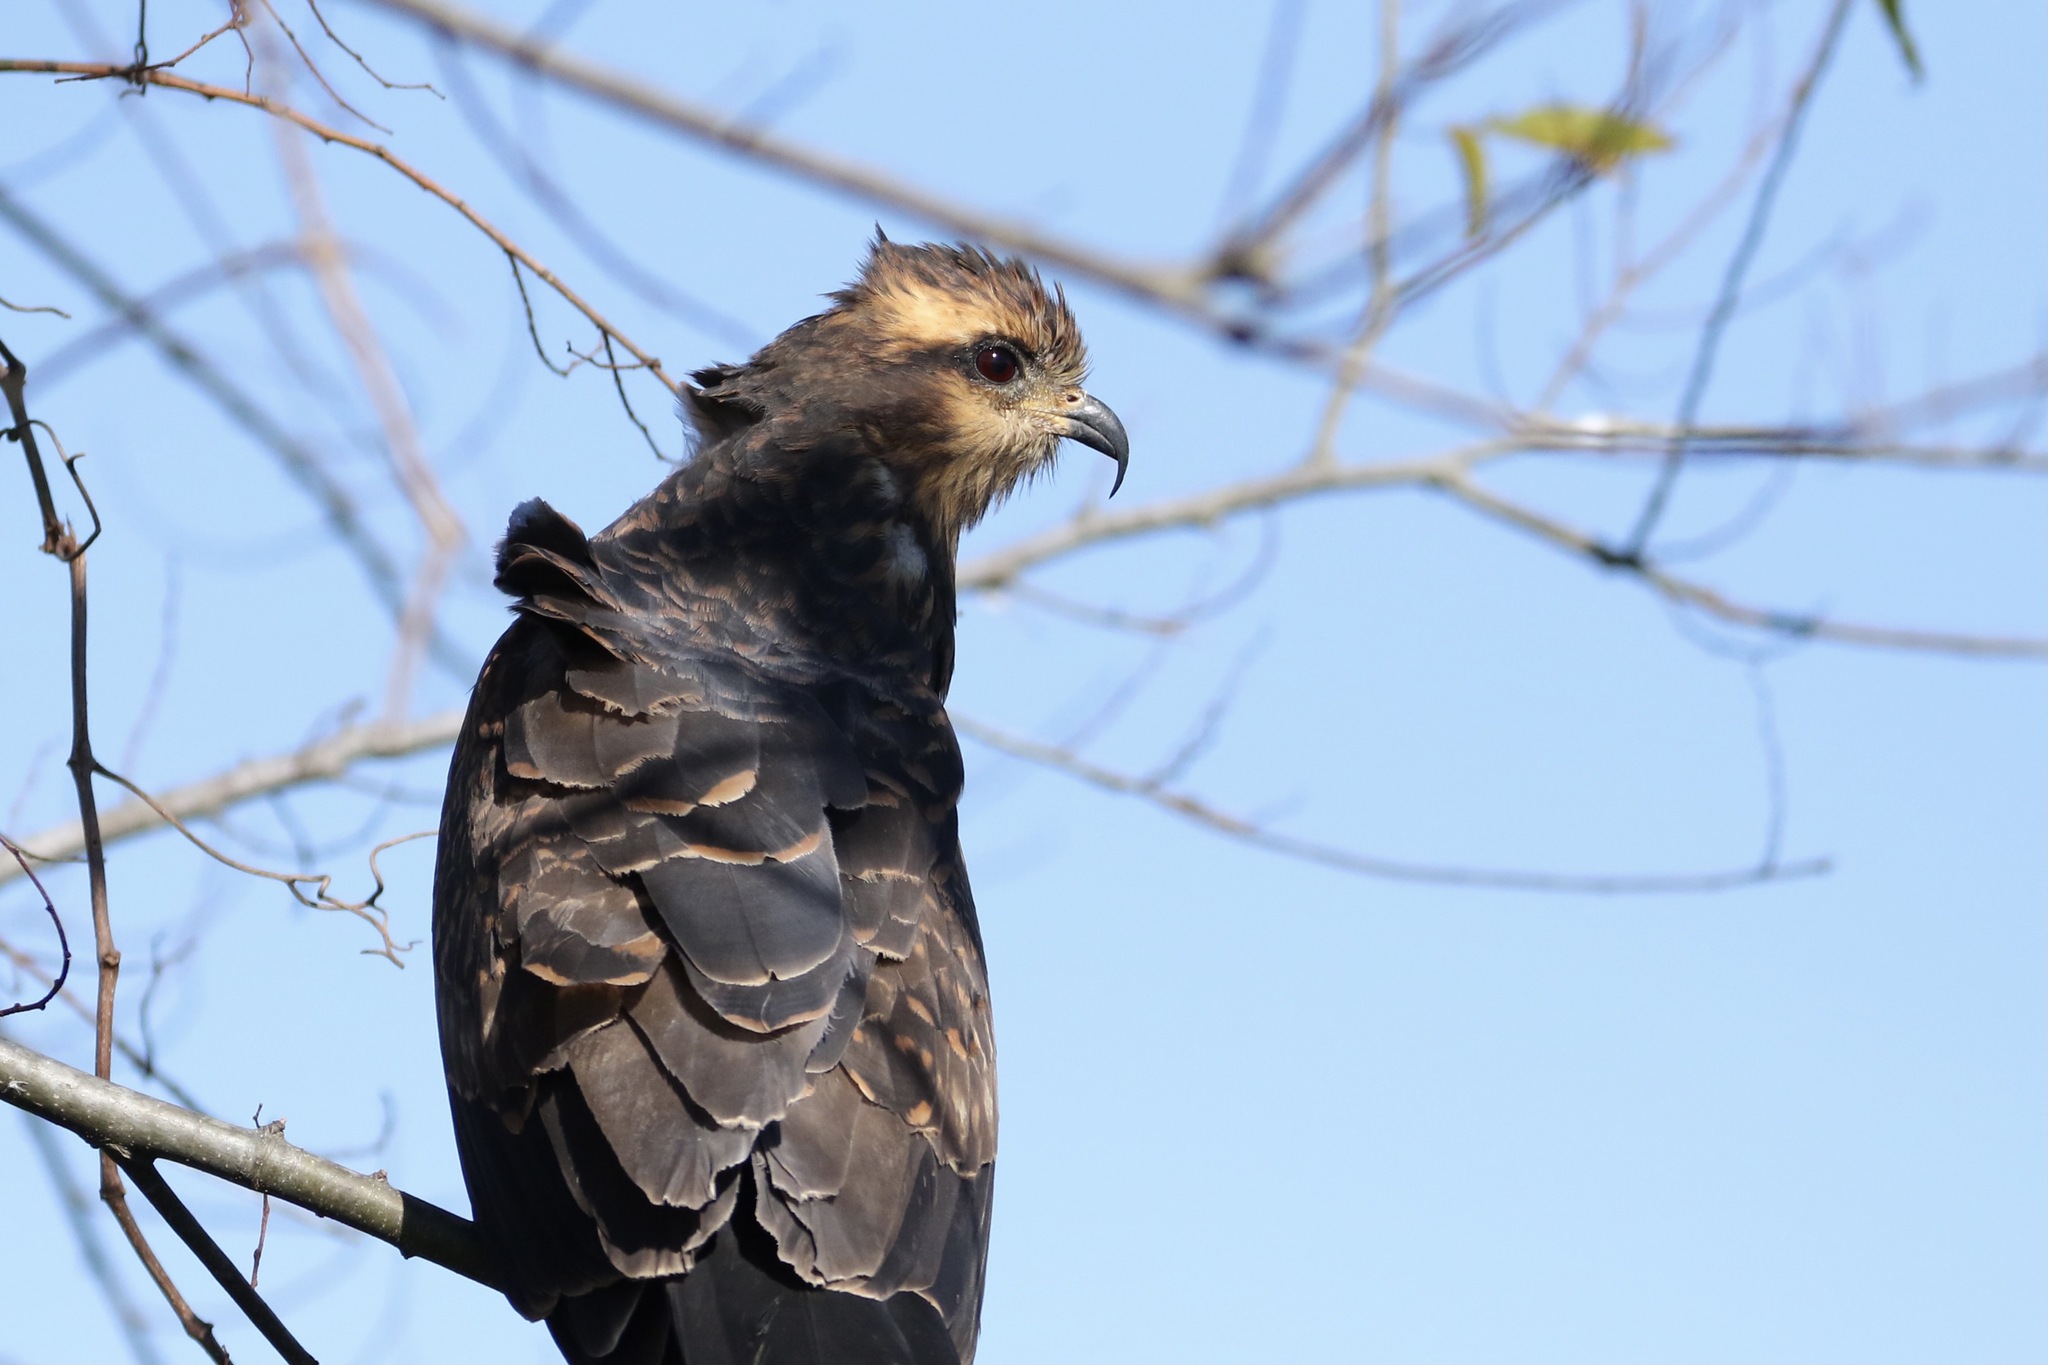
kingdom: Animalia
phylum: Chordata
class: Aves
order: Accipitriformes
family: Accipitridae
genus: Rostrhamus
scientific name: Rostrhamus sociabilis
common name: Snail kite
